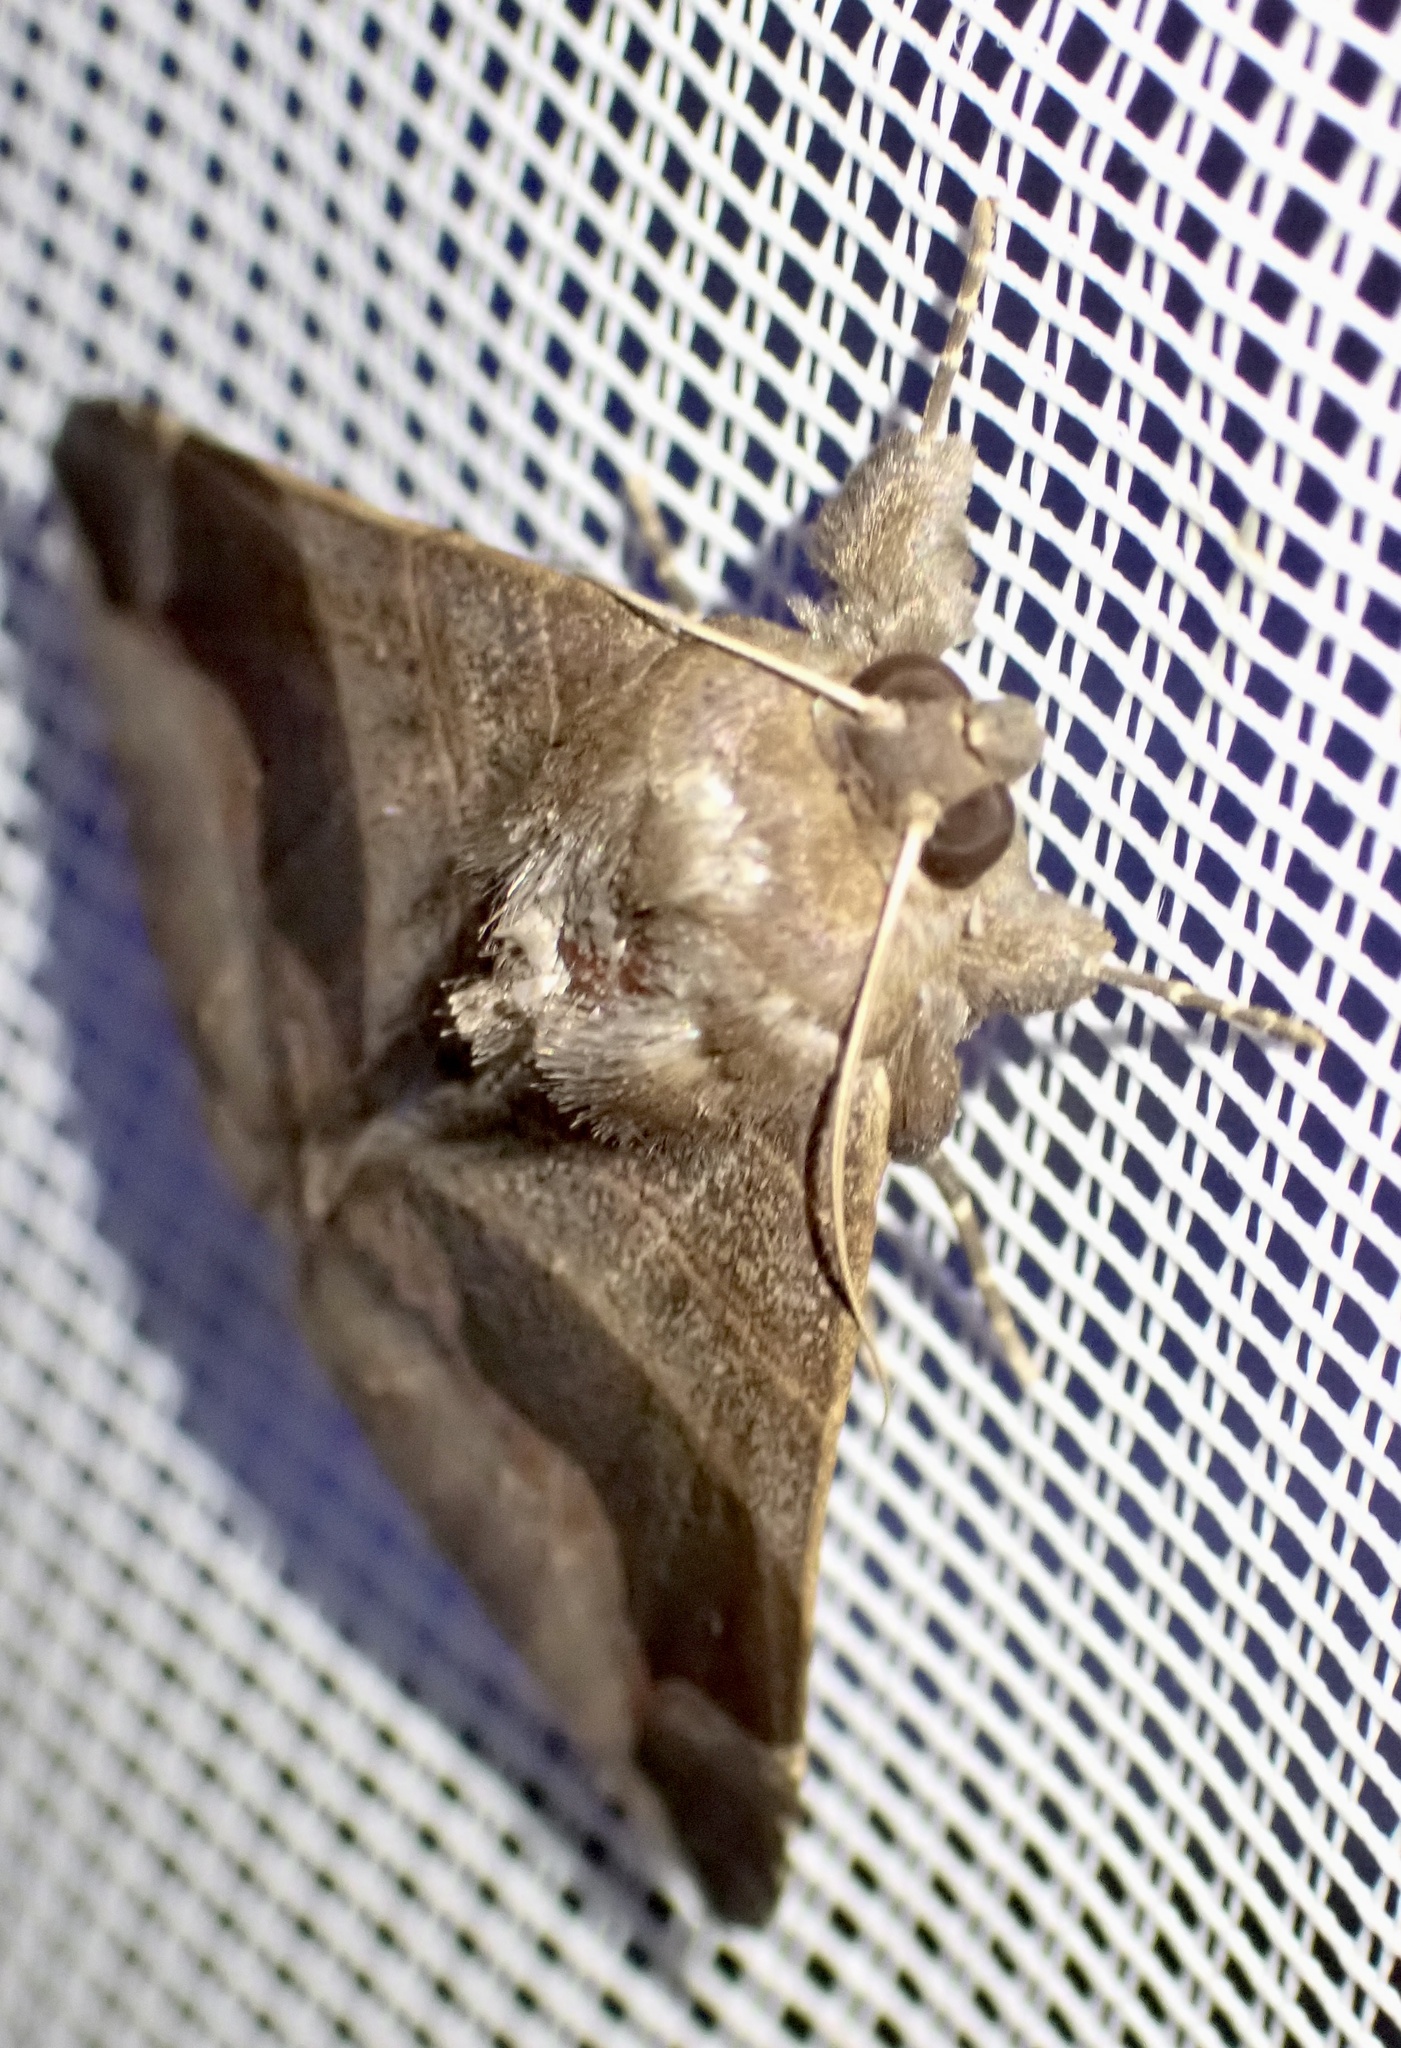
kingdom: Animalia
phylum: Arthropoda
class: Insecta
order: Lepidoptera
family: Erebidae
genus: Bastilla
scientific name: Bastilla solomonensis
